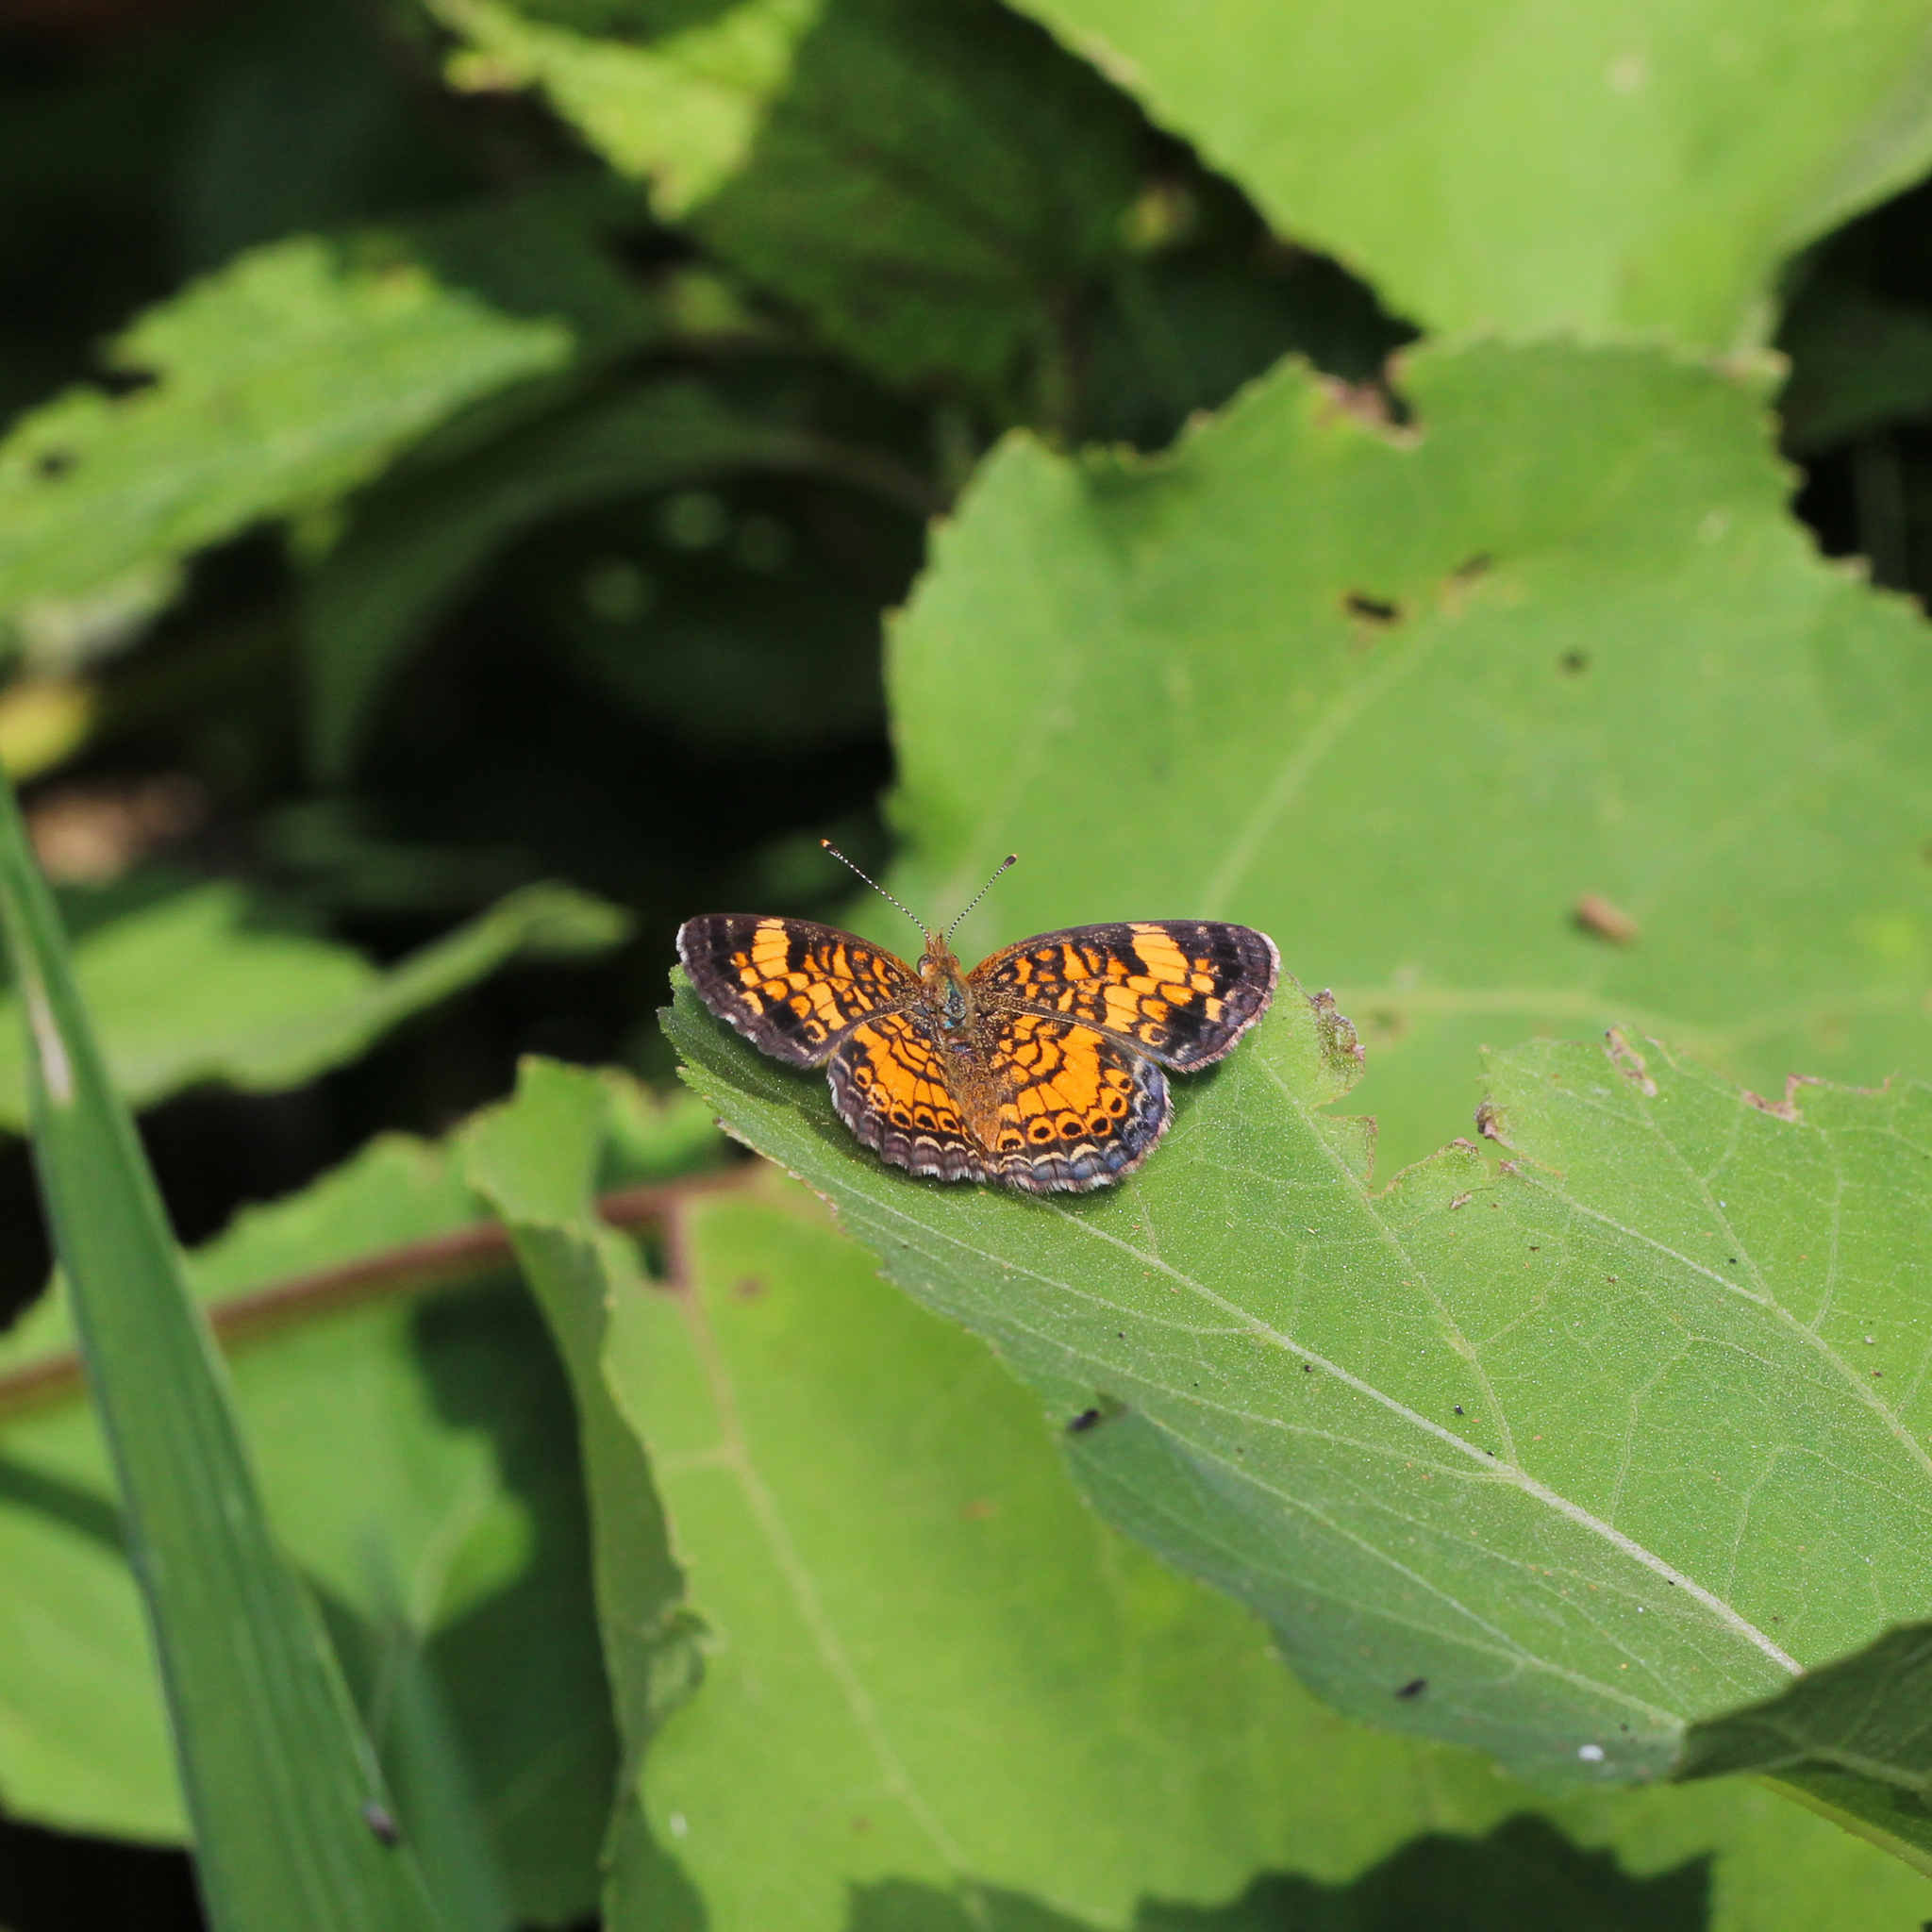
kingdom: Animalia
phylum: Arthropoda
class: Insecta
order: Lepidoptera
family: Nymphalidae
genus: Phyciodes
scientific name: Phyciodes tharos
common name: Pearl crescent
